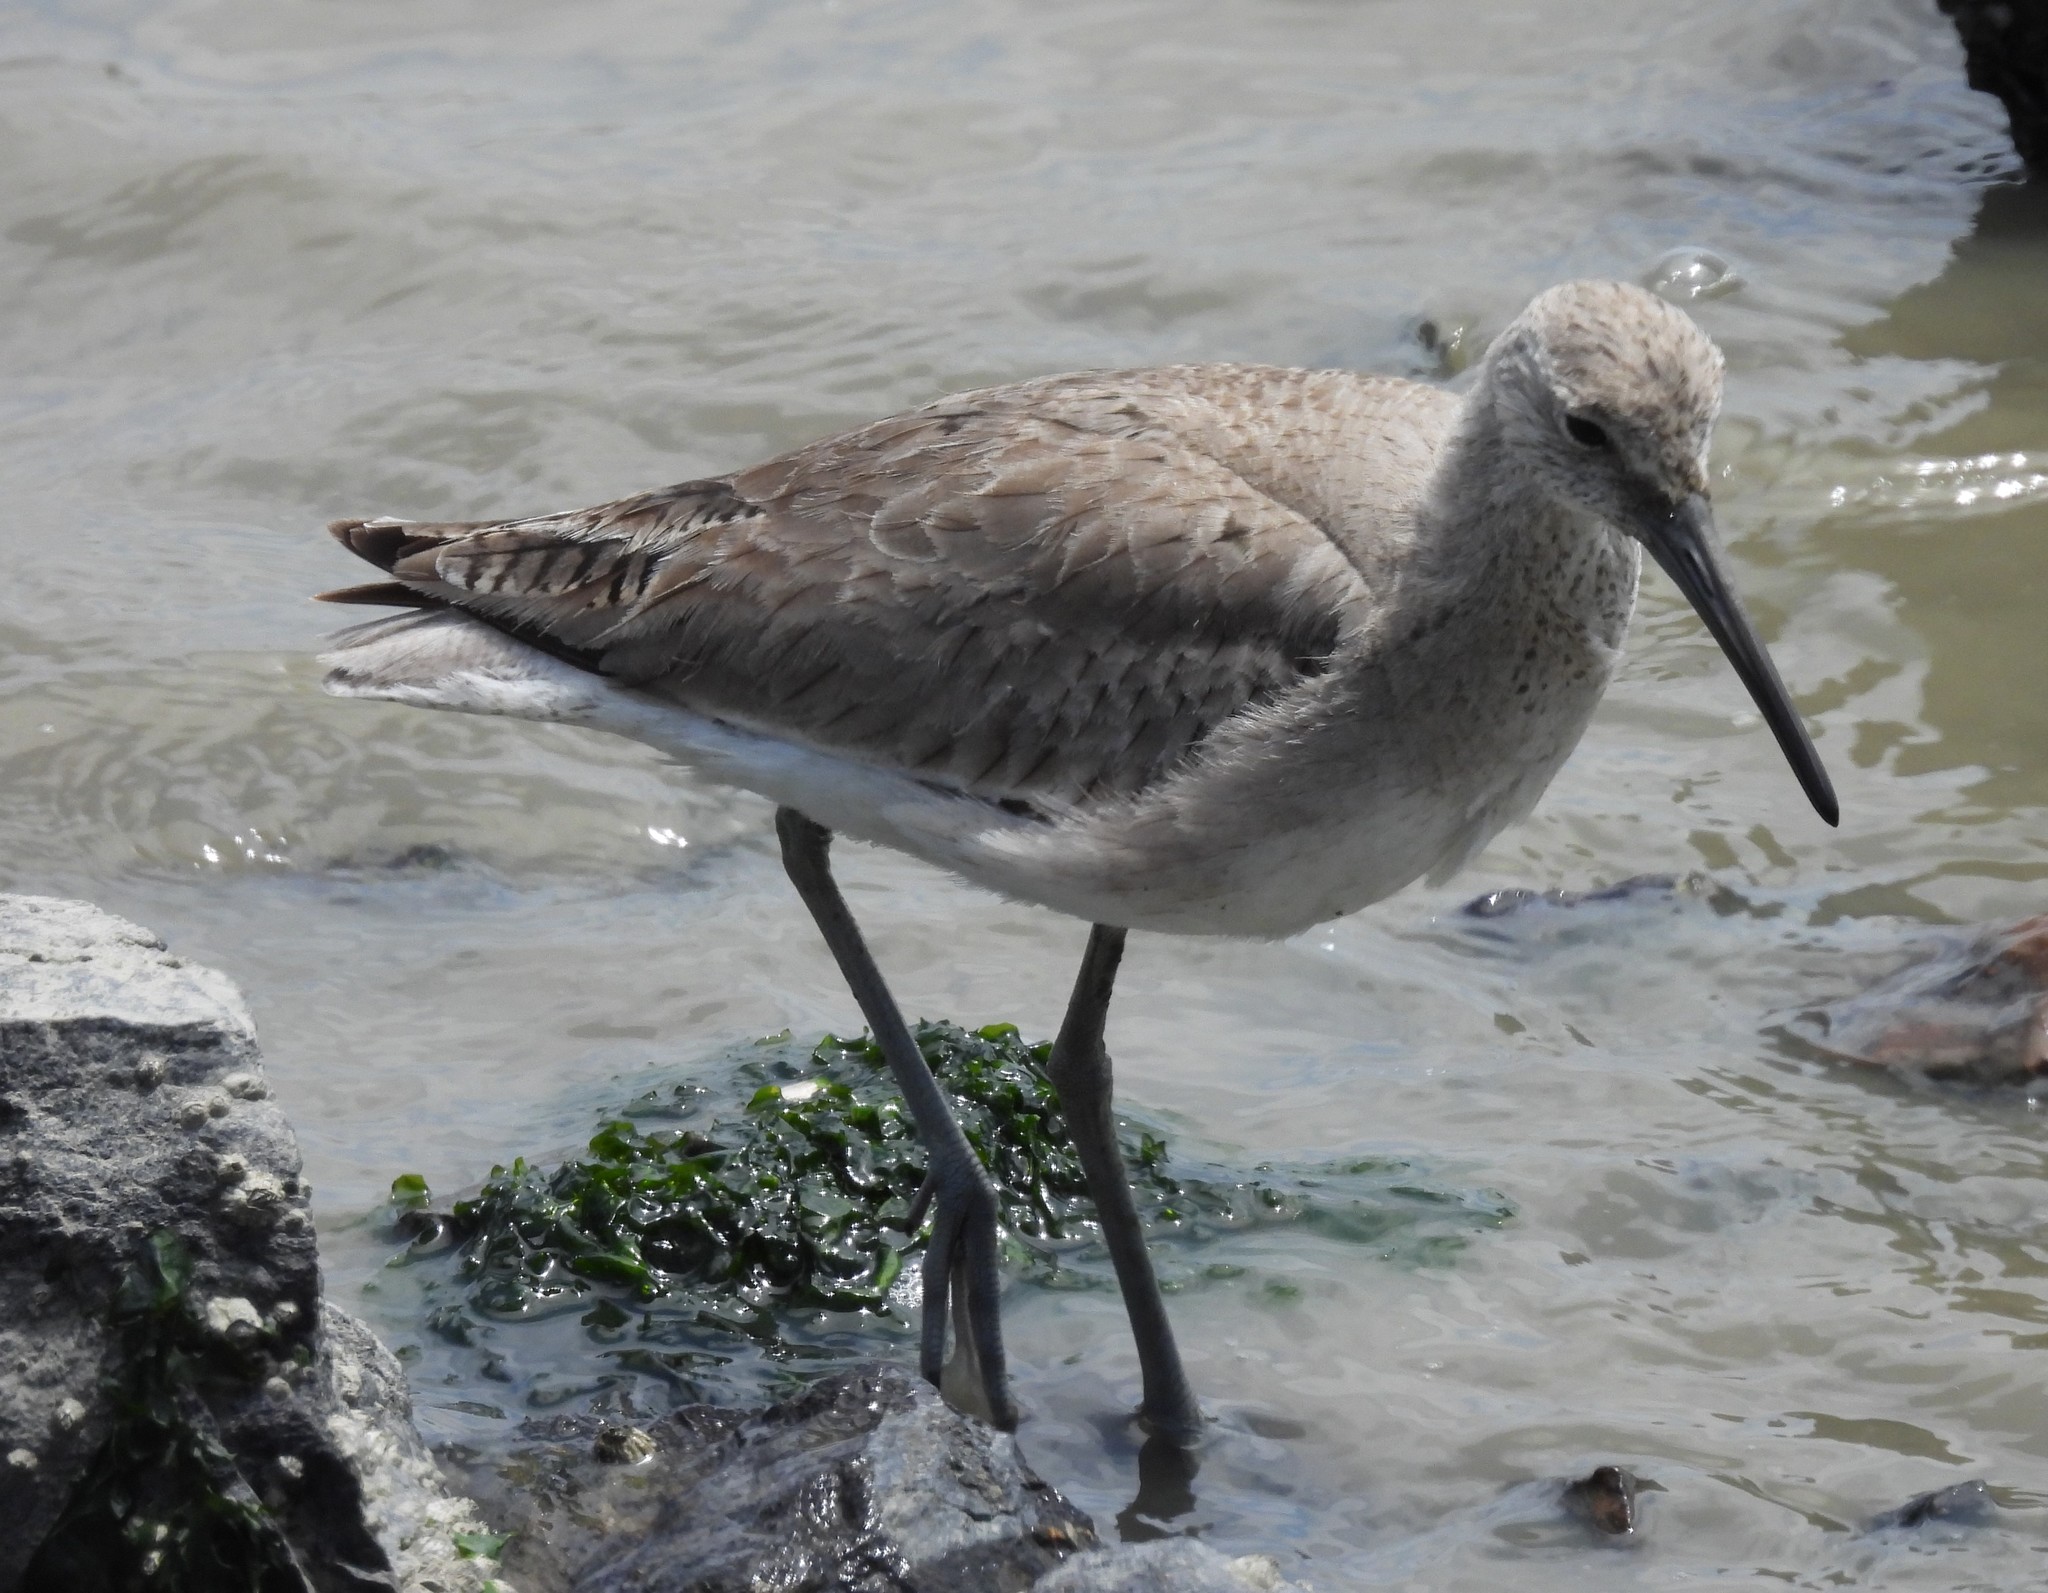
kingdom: Animalia
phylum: Chordata
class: Aves
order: Charadriiformes
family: Scolopacidae
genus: Tringa
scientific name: Tringa semipalmata
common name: Willet
